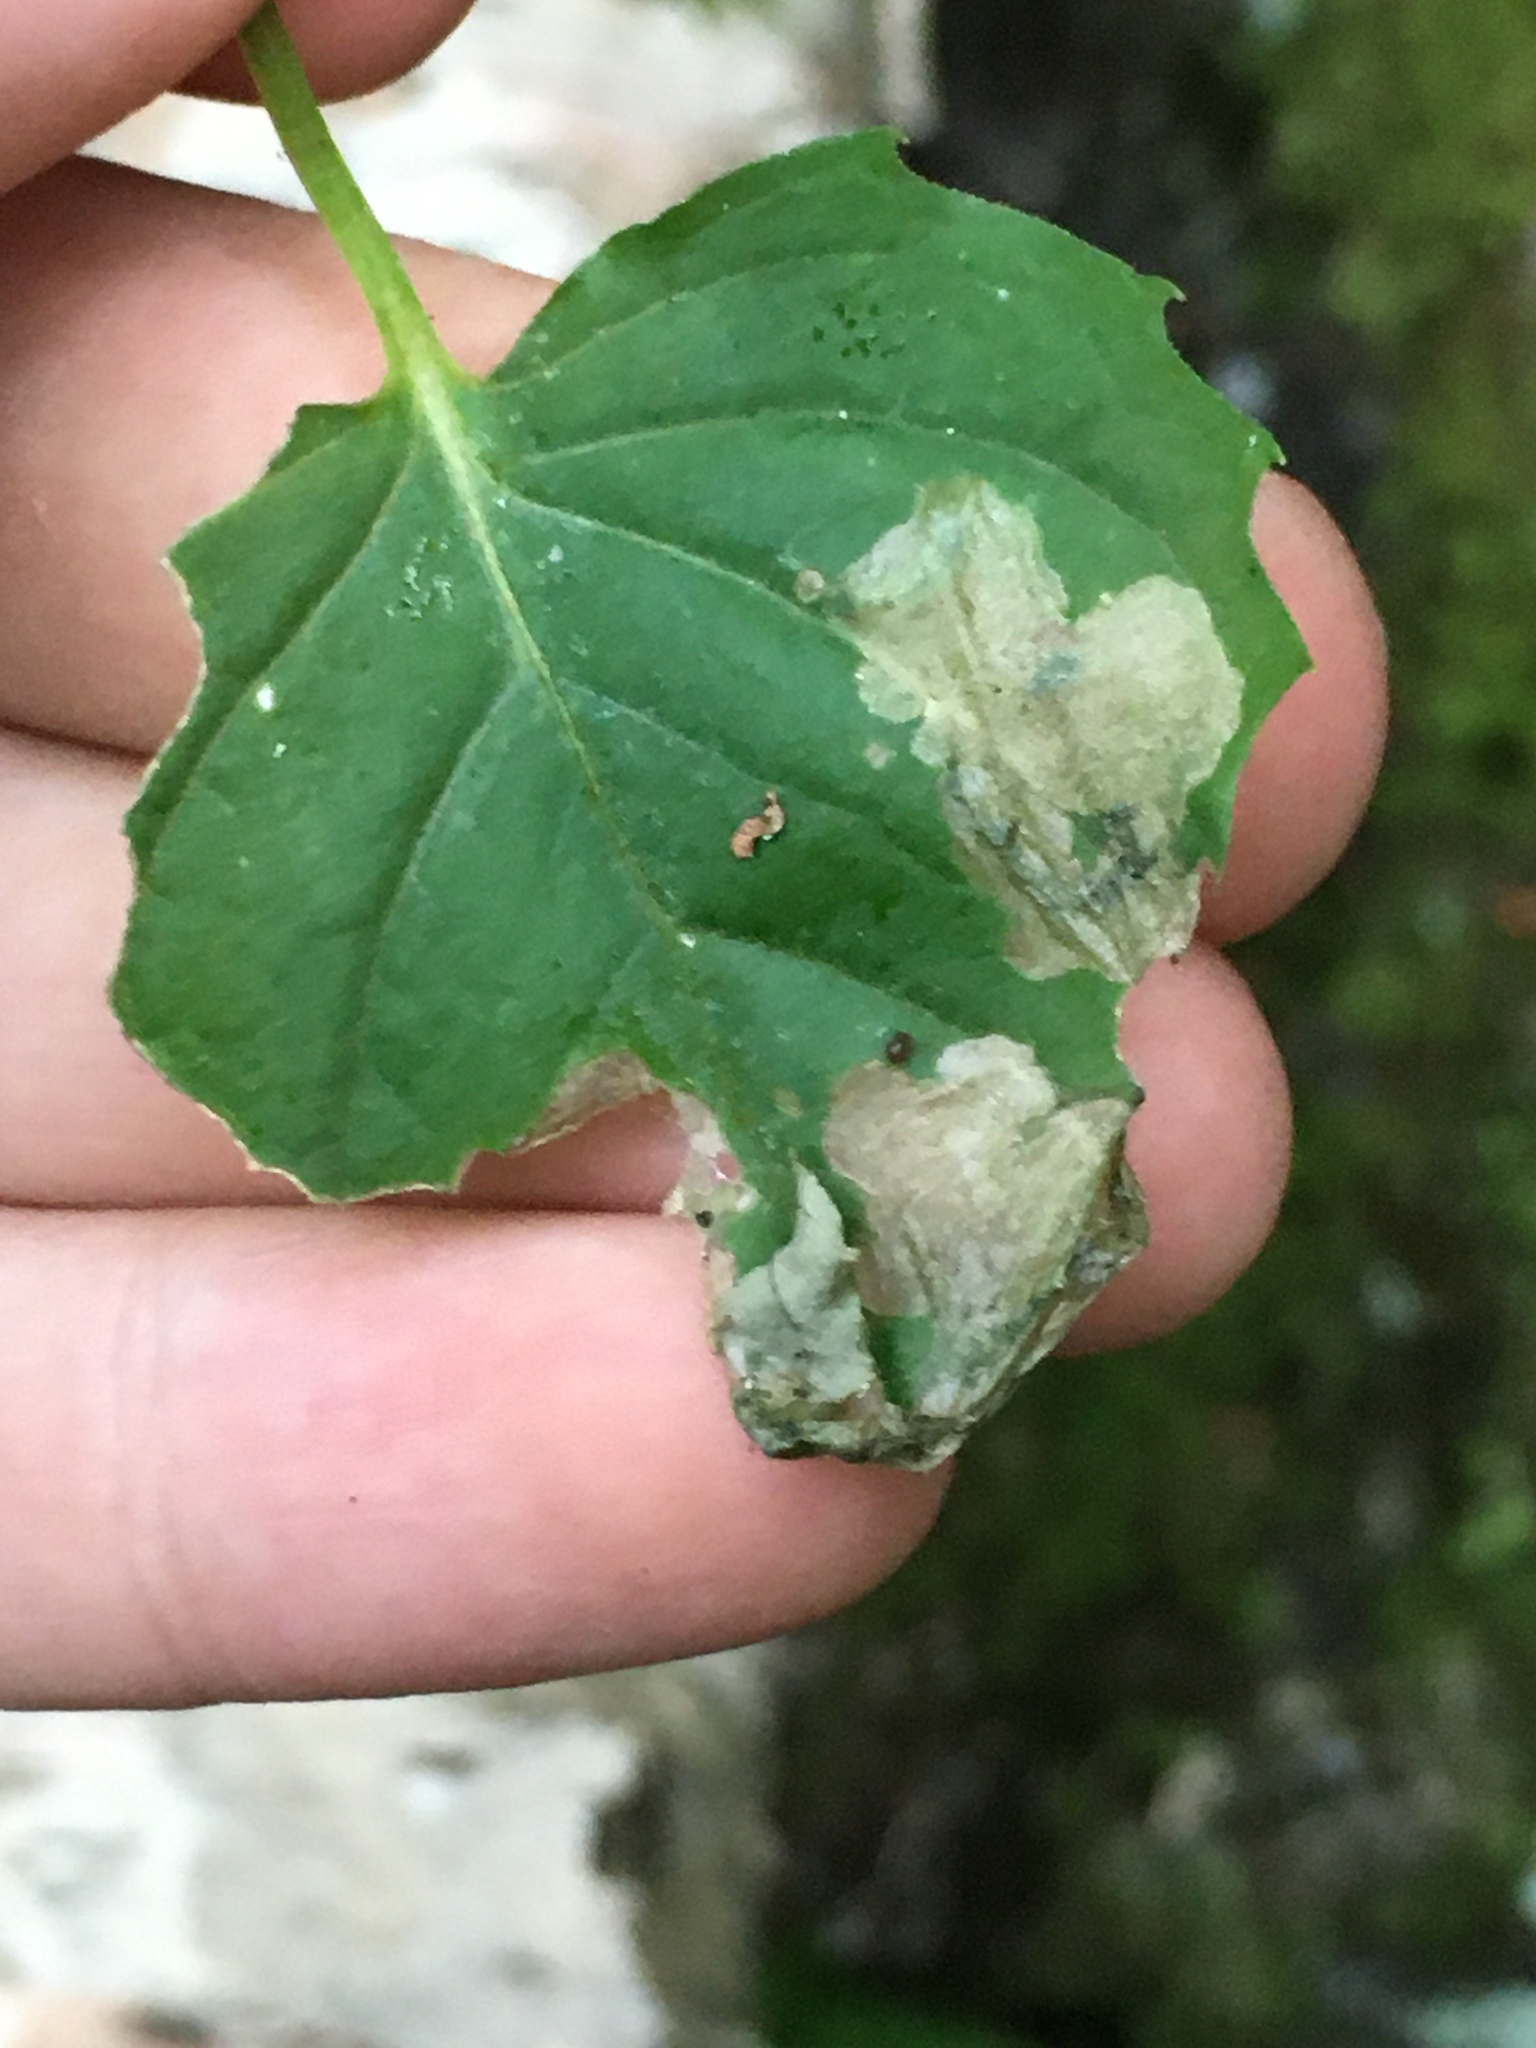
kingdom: Animalia
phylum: Arthropoda
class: Insecta
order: Lepidoptera
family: Momphidae
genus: Mompha
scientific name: Mompha terminella
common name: Enchanters cosmet
